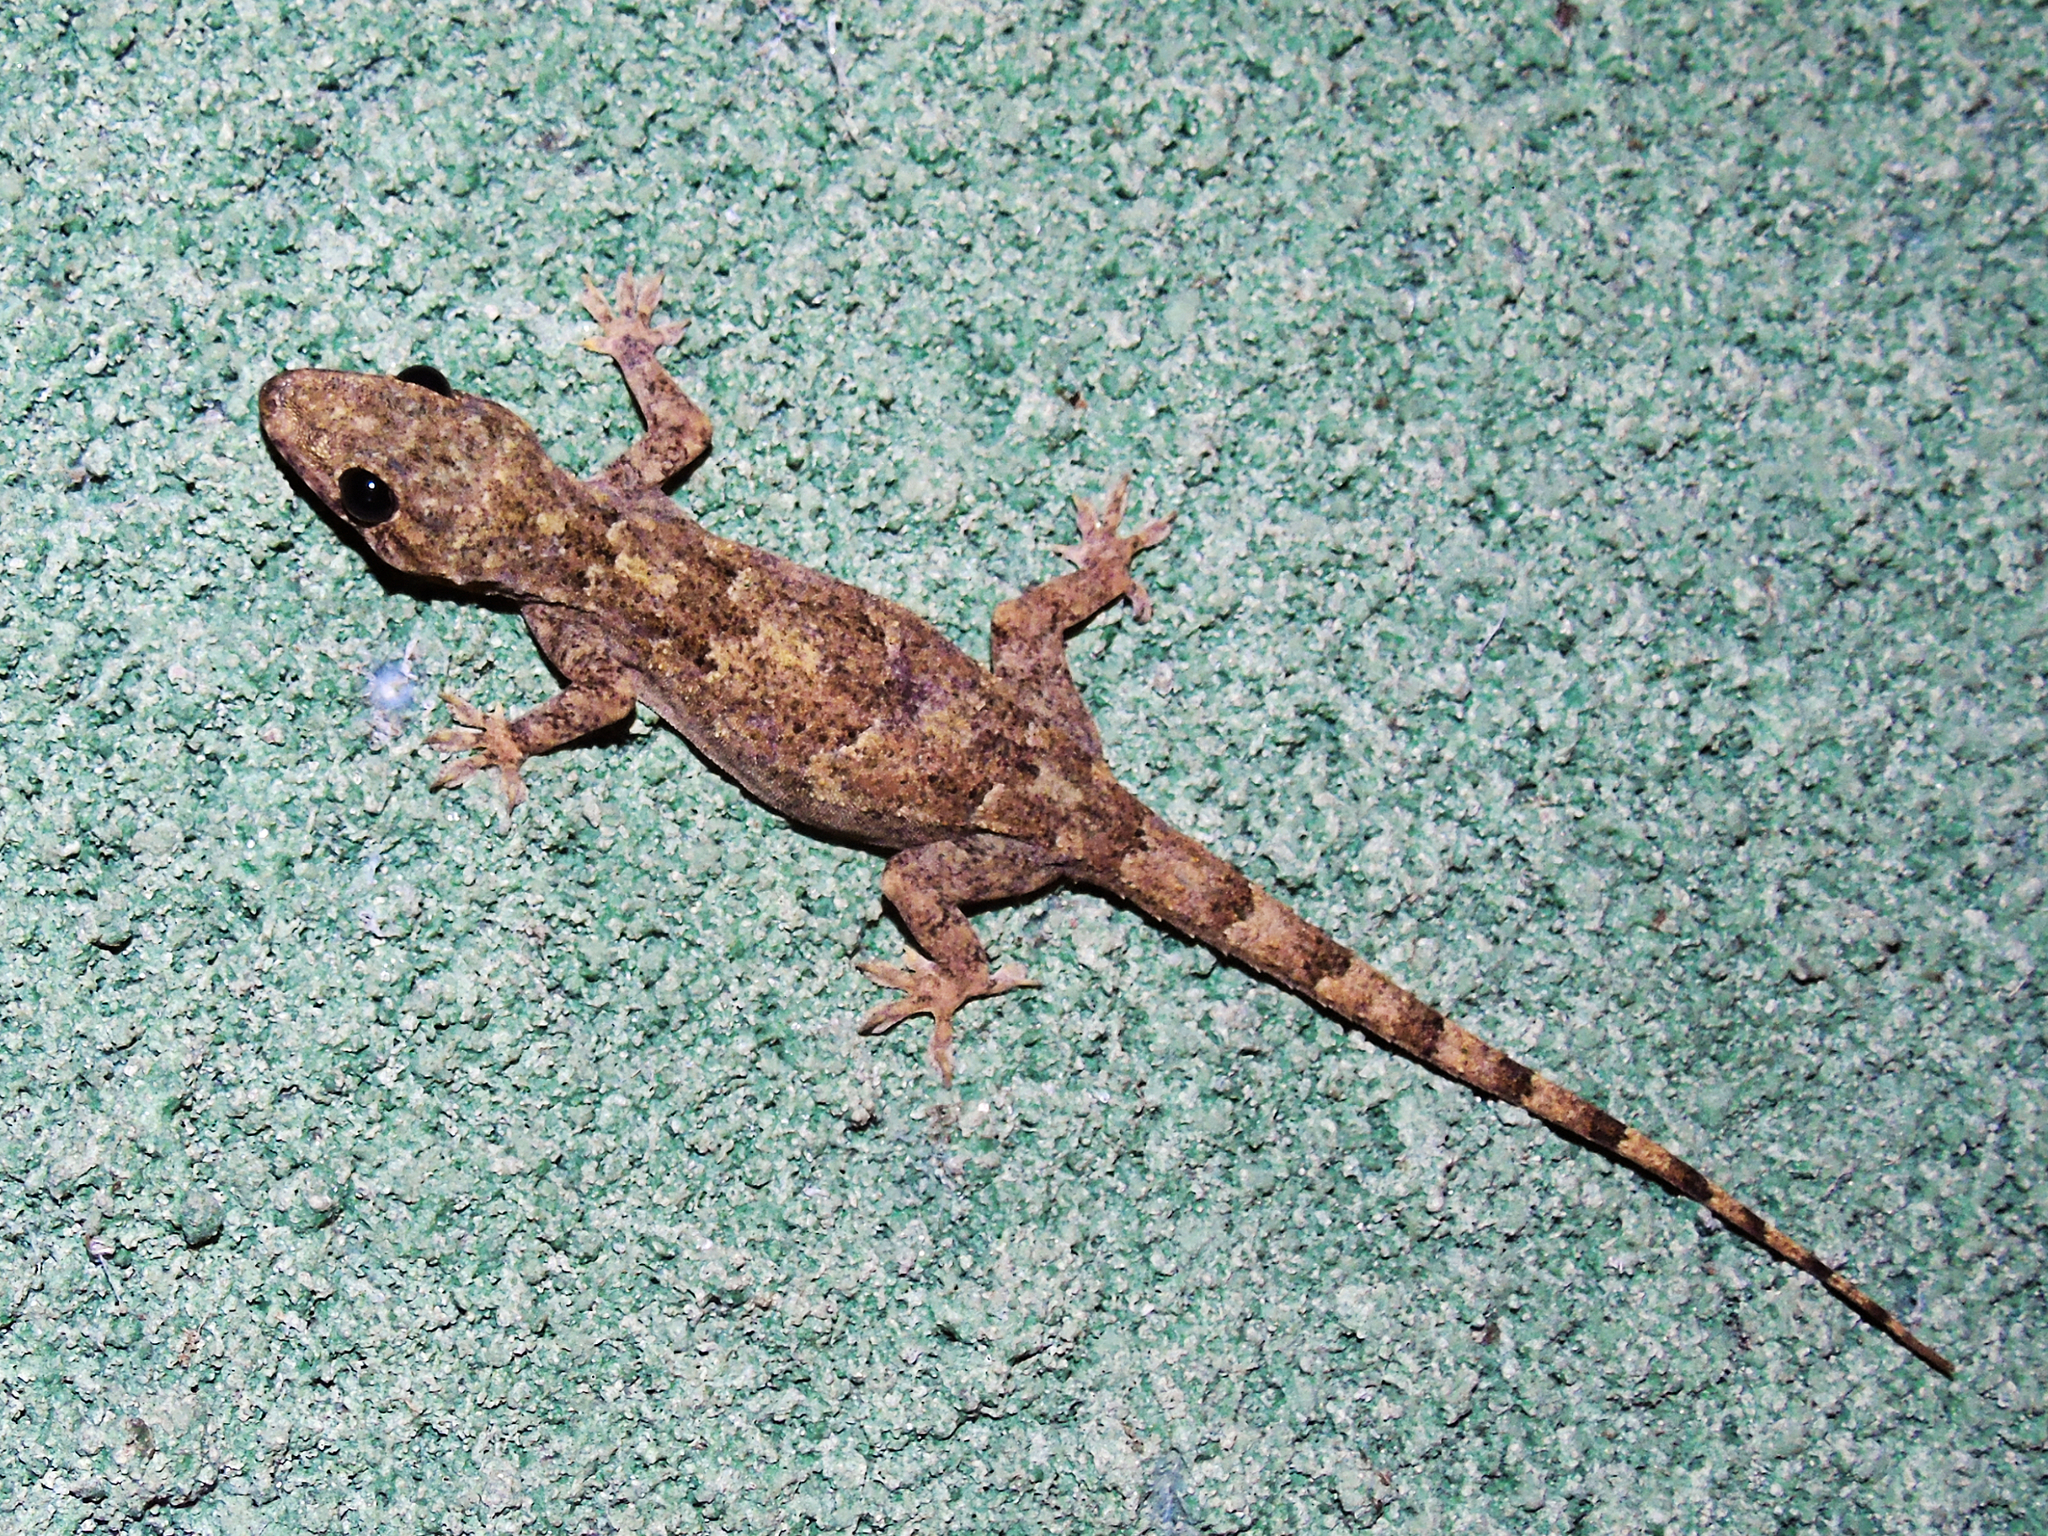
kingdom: Animalia
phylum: Chordata
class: Squamata
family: Gekkonidae
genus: Hemidactylus
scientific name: Hemidactylus platycephalus
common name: Baobab gecko
